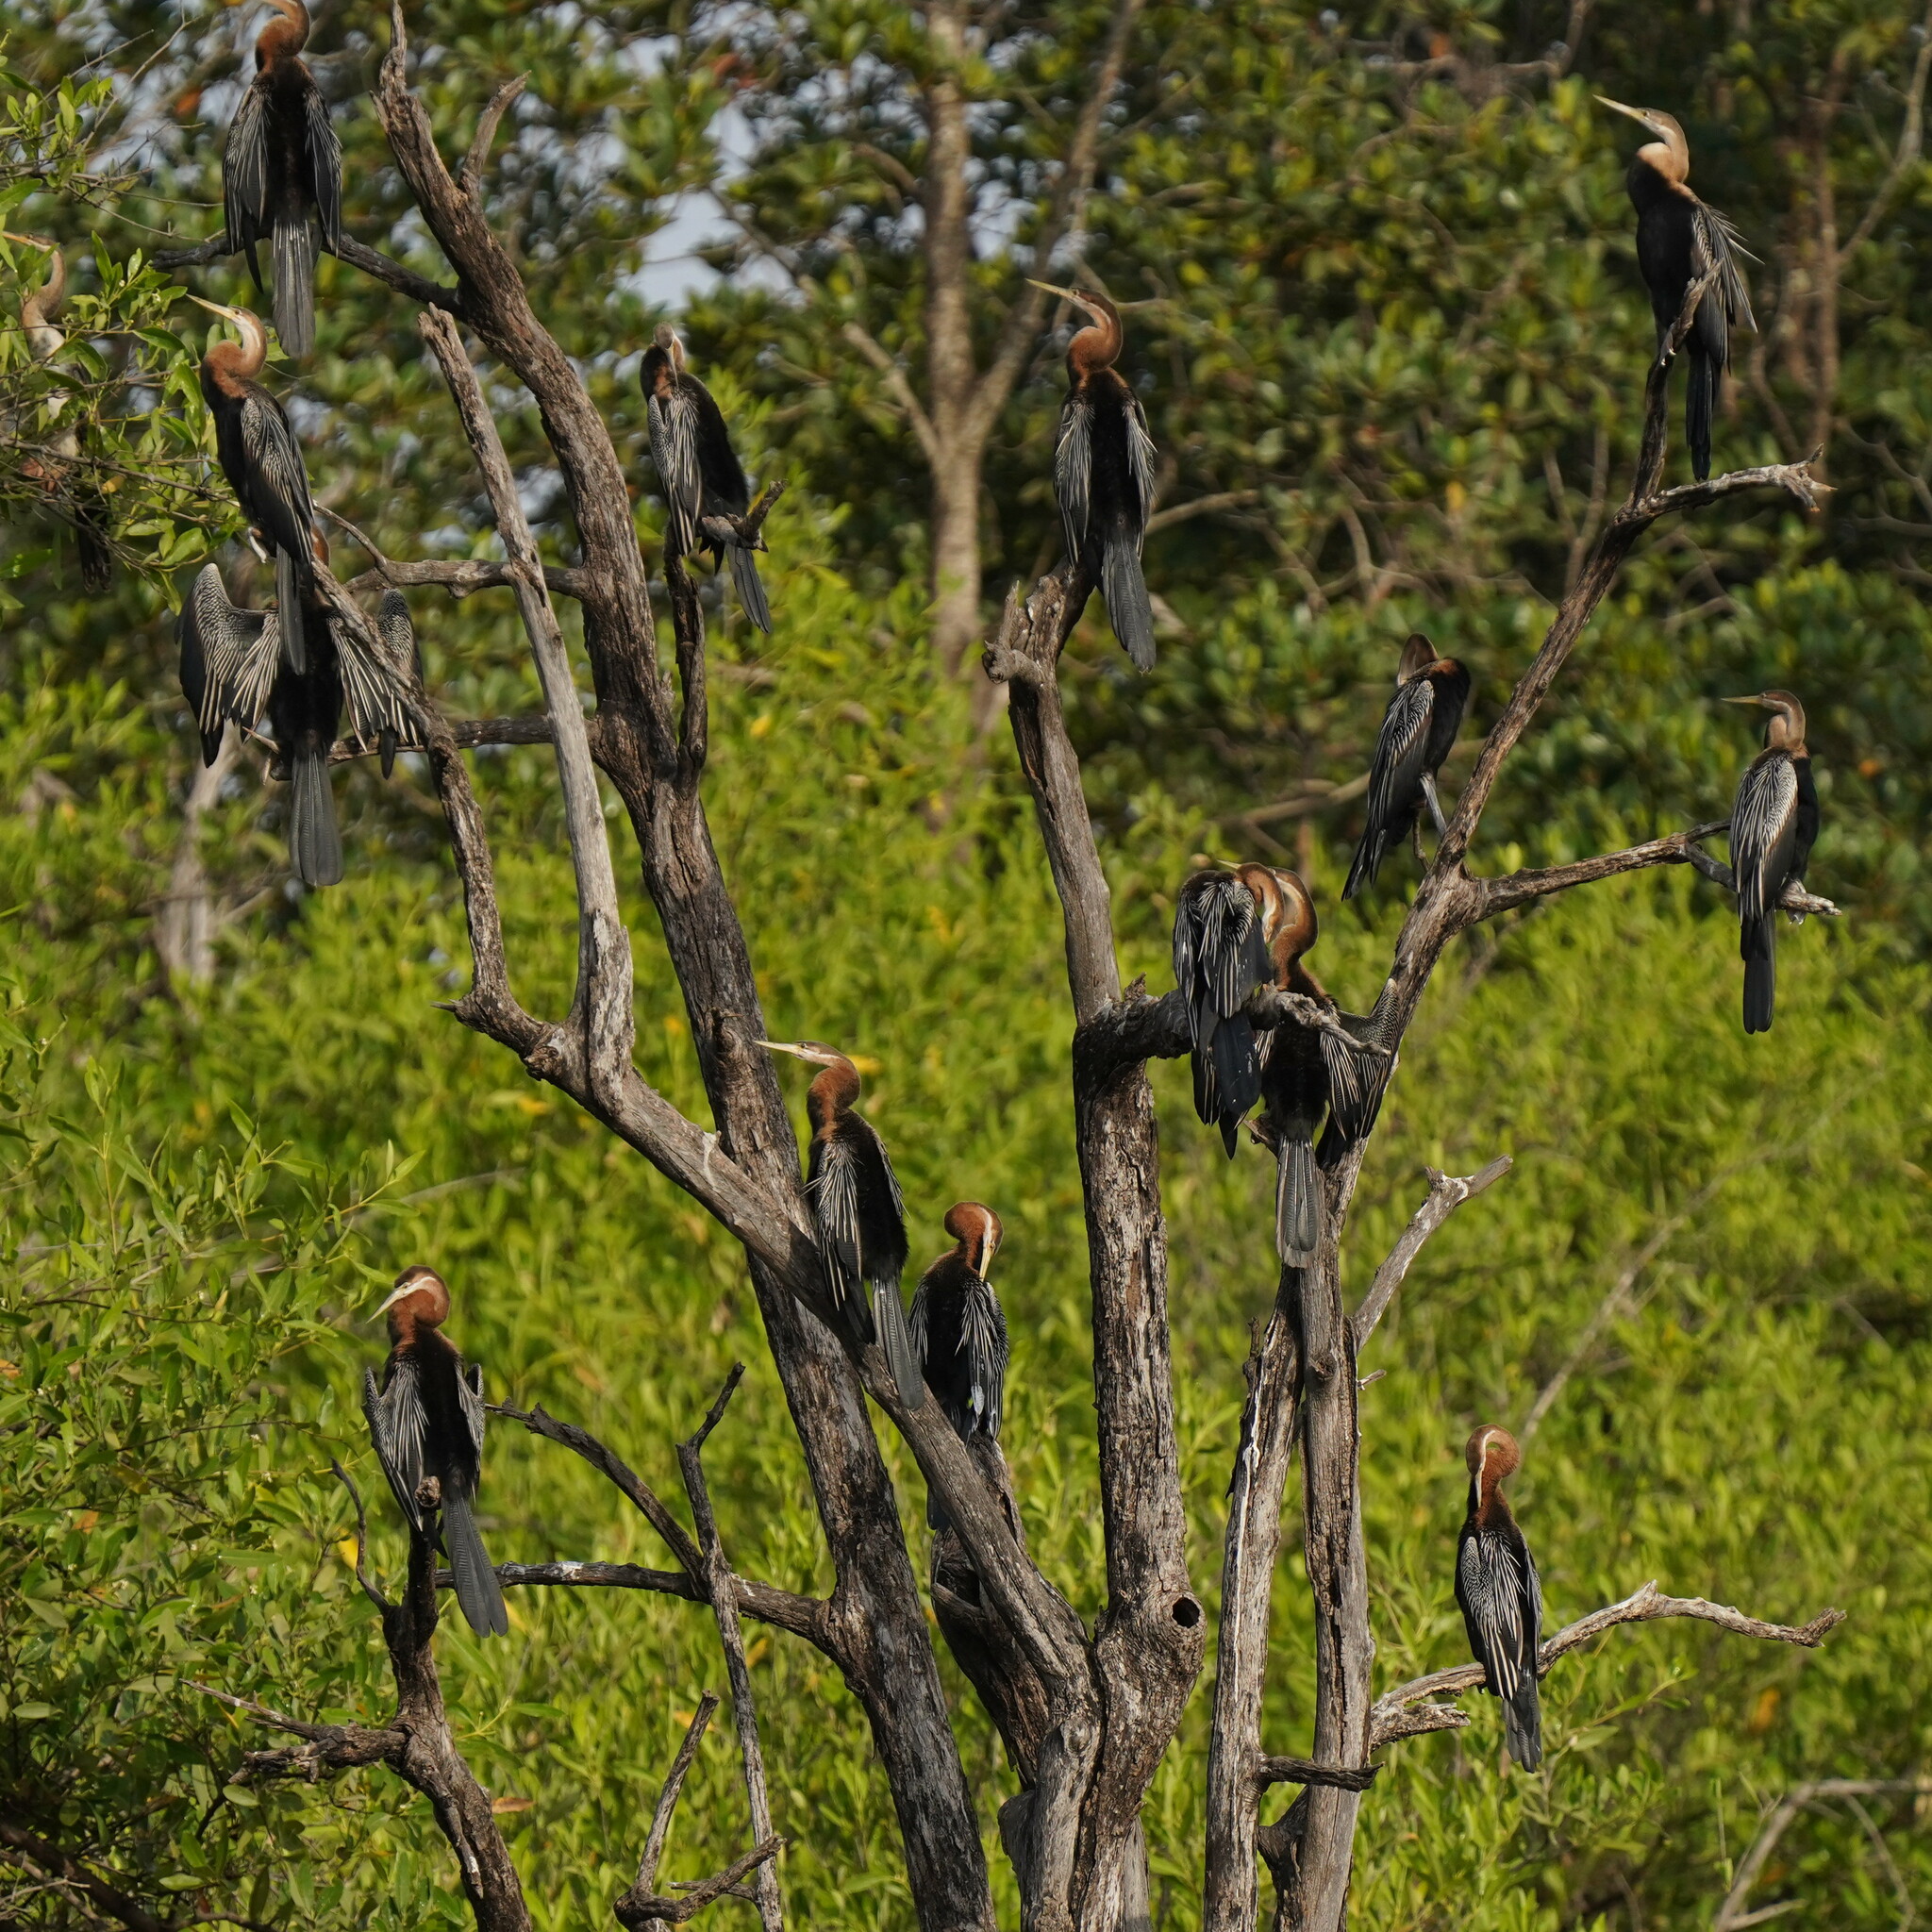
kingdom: Animalia
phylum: Chordata
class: Aves
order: Suliformes
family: Anhingidae
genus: Anhinga
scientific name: Anhinga rufa
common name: African darter
